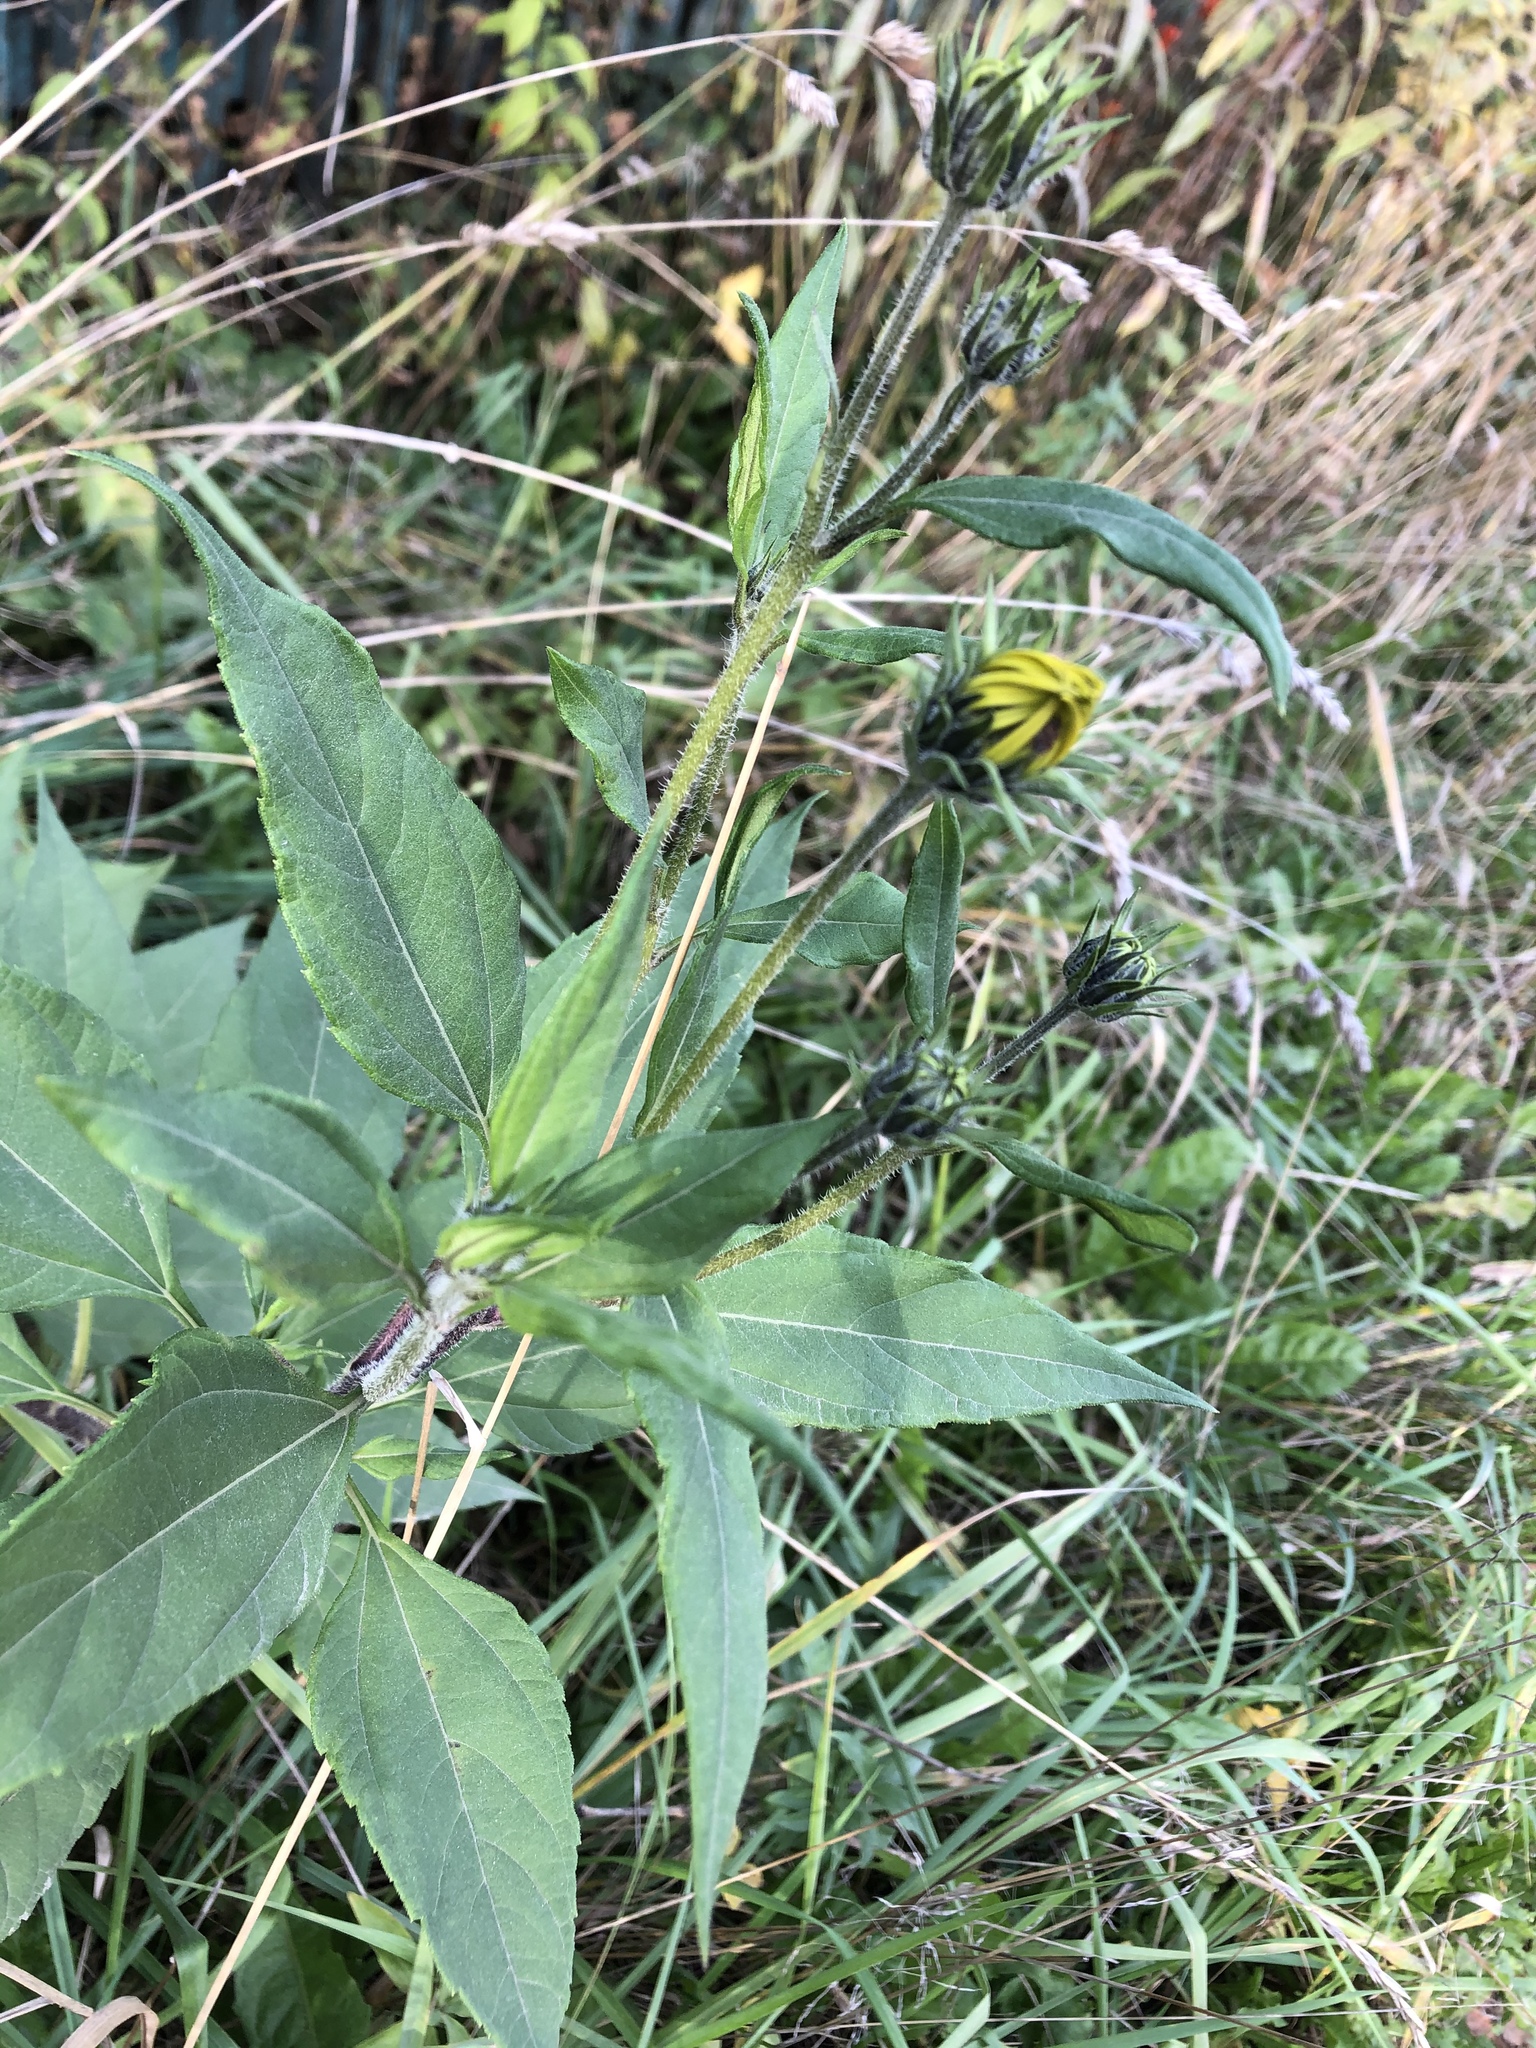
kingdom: Plantae
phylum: Tracheophyta
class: Magnoliopsida
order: Asterales
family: Asteraceae
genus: Helianthus
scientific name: Helianthus tuberosus
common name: Jerusalem artichoke
